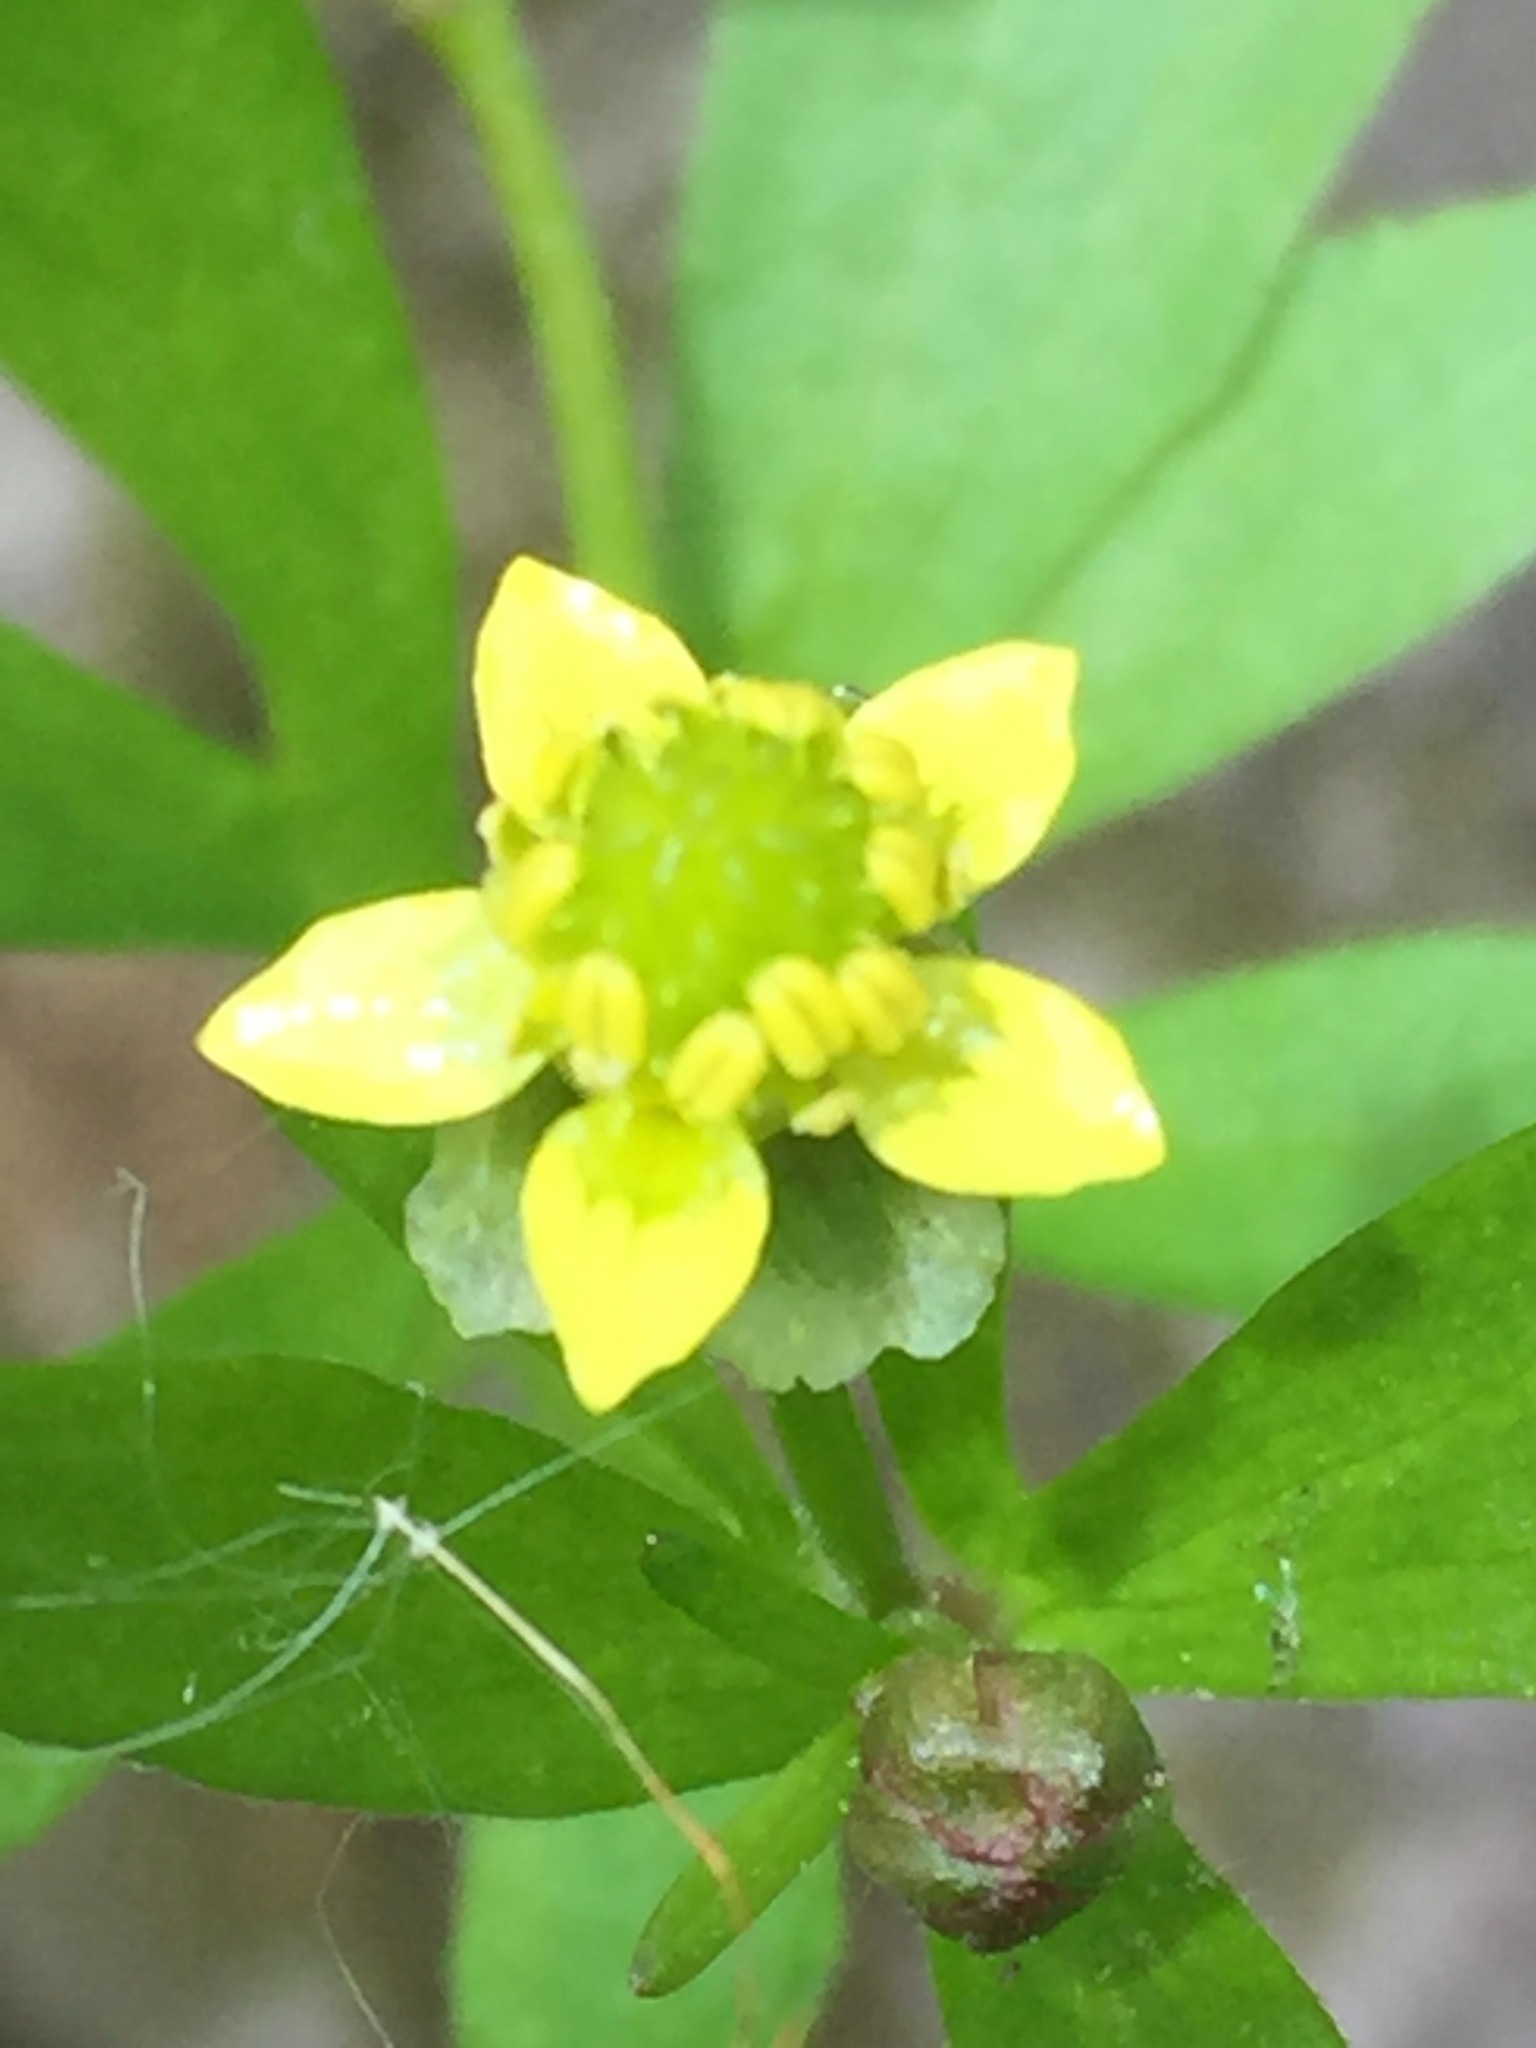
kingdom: Plantae
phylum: Tracheophyta
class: Magnoliopsida
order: Ranunculales
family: Ranunculaceae
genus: Ranunculus
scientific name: Ranunculus abortivus
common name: Early wood buttercup
